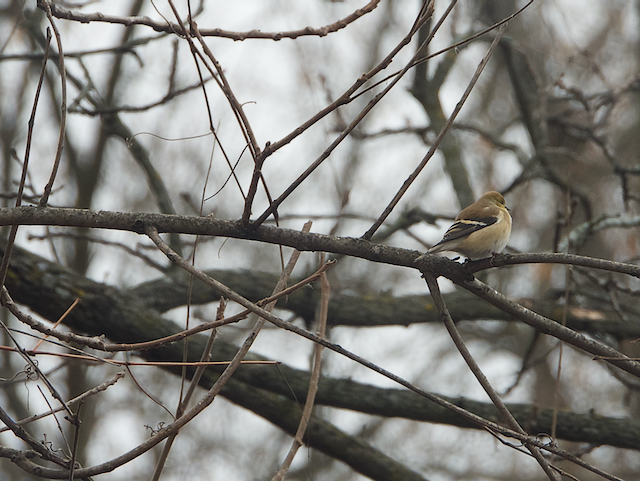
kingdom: Animalia
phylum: Chordata
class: Aves
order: Passeriformes
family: Fringillidae
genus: Spinus
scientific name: Spinus tristis
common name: American goldfinch
